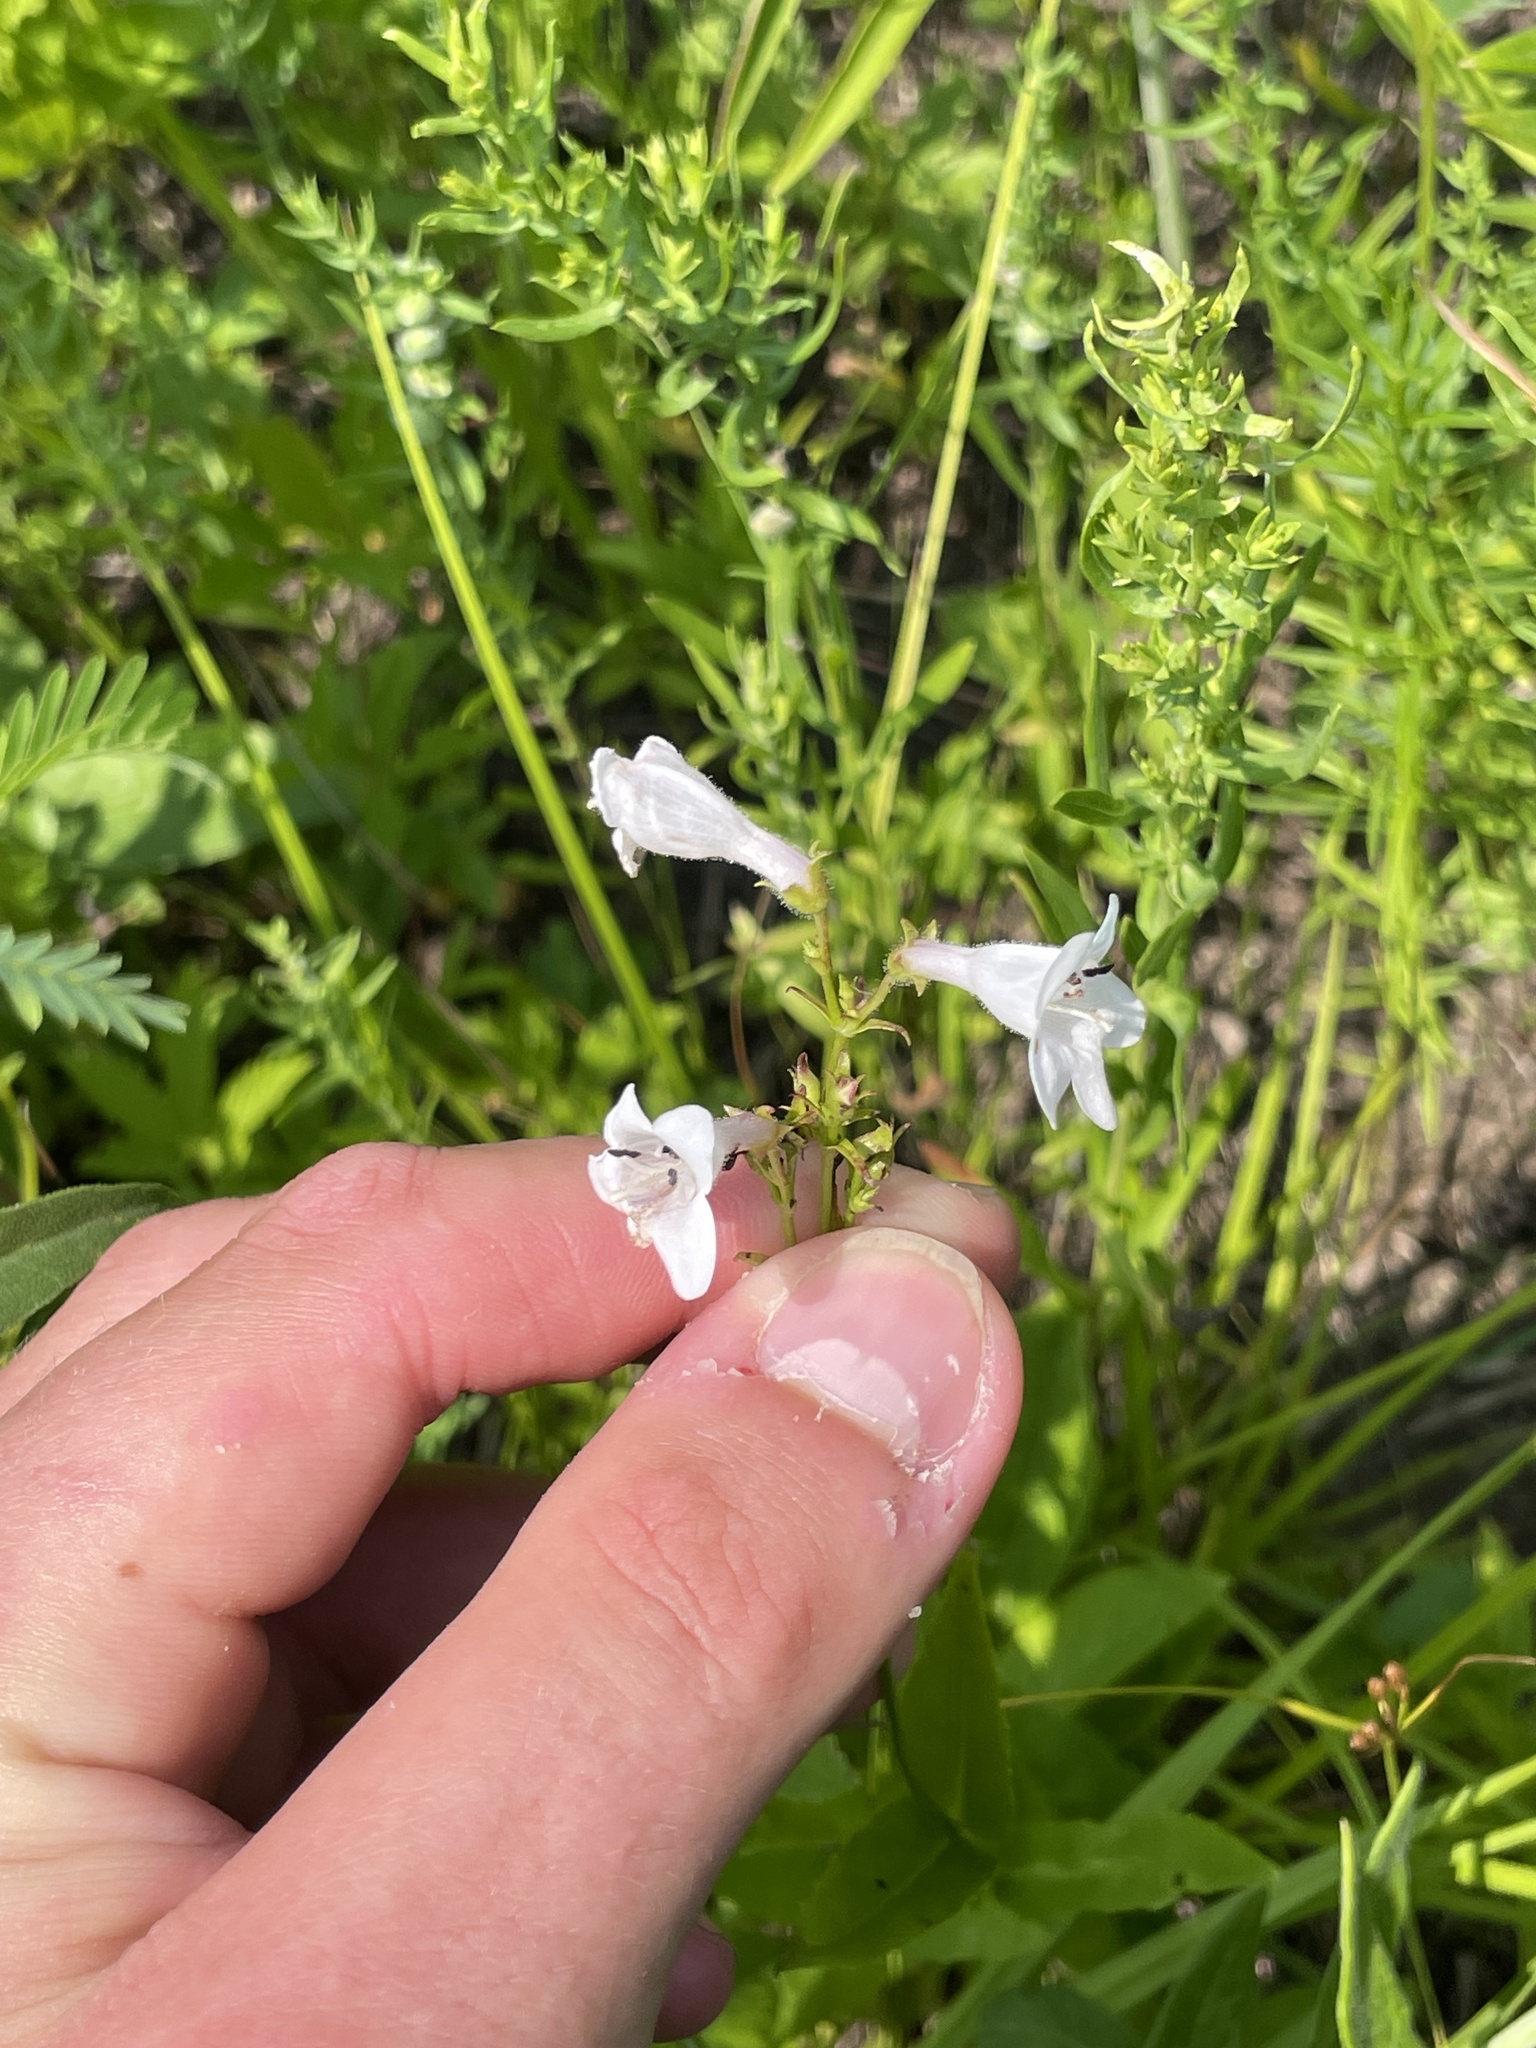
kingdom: Plantae
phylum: Tracheophyta
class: Magnoliopsida
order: Lamiales
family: Plantaginaceae
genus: Penstemon
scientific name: Penstemon digitalis
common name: Foxglove beardtongue
